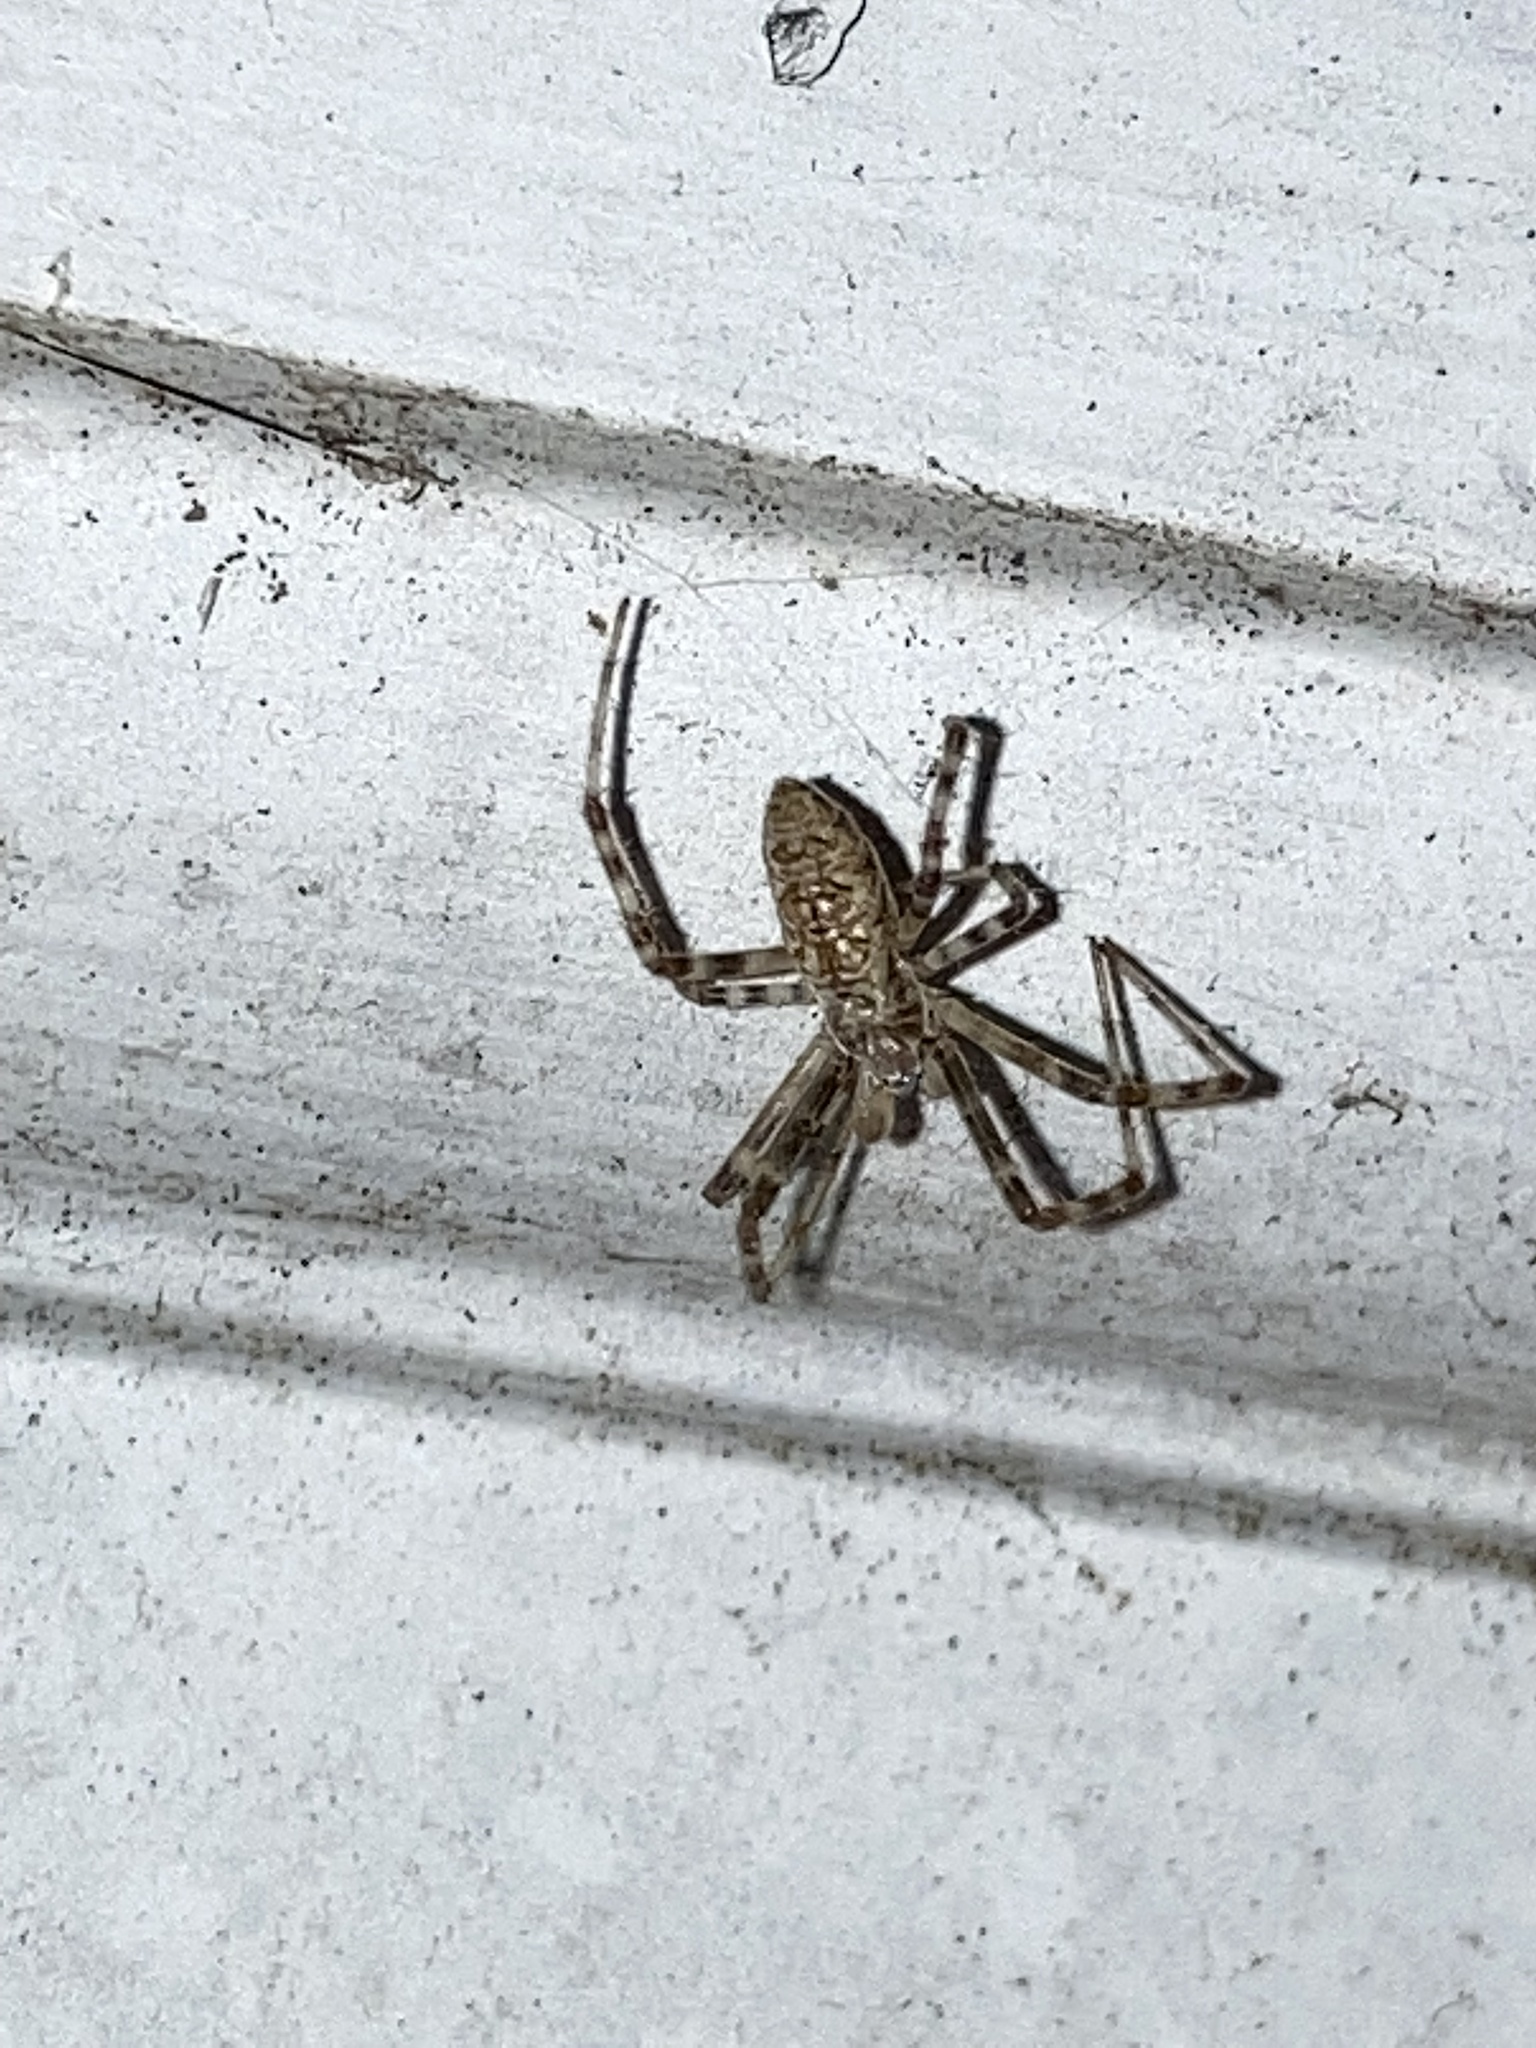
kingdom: Animalia
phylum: Arthropoda
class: Arachnida
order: Araneae
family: Araneidae
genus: Argiope
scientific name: Argiope aurantia
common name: Orb weavers
